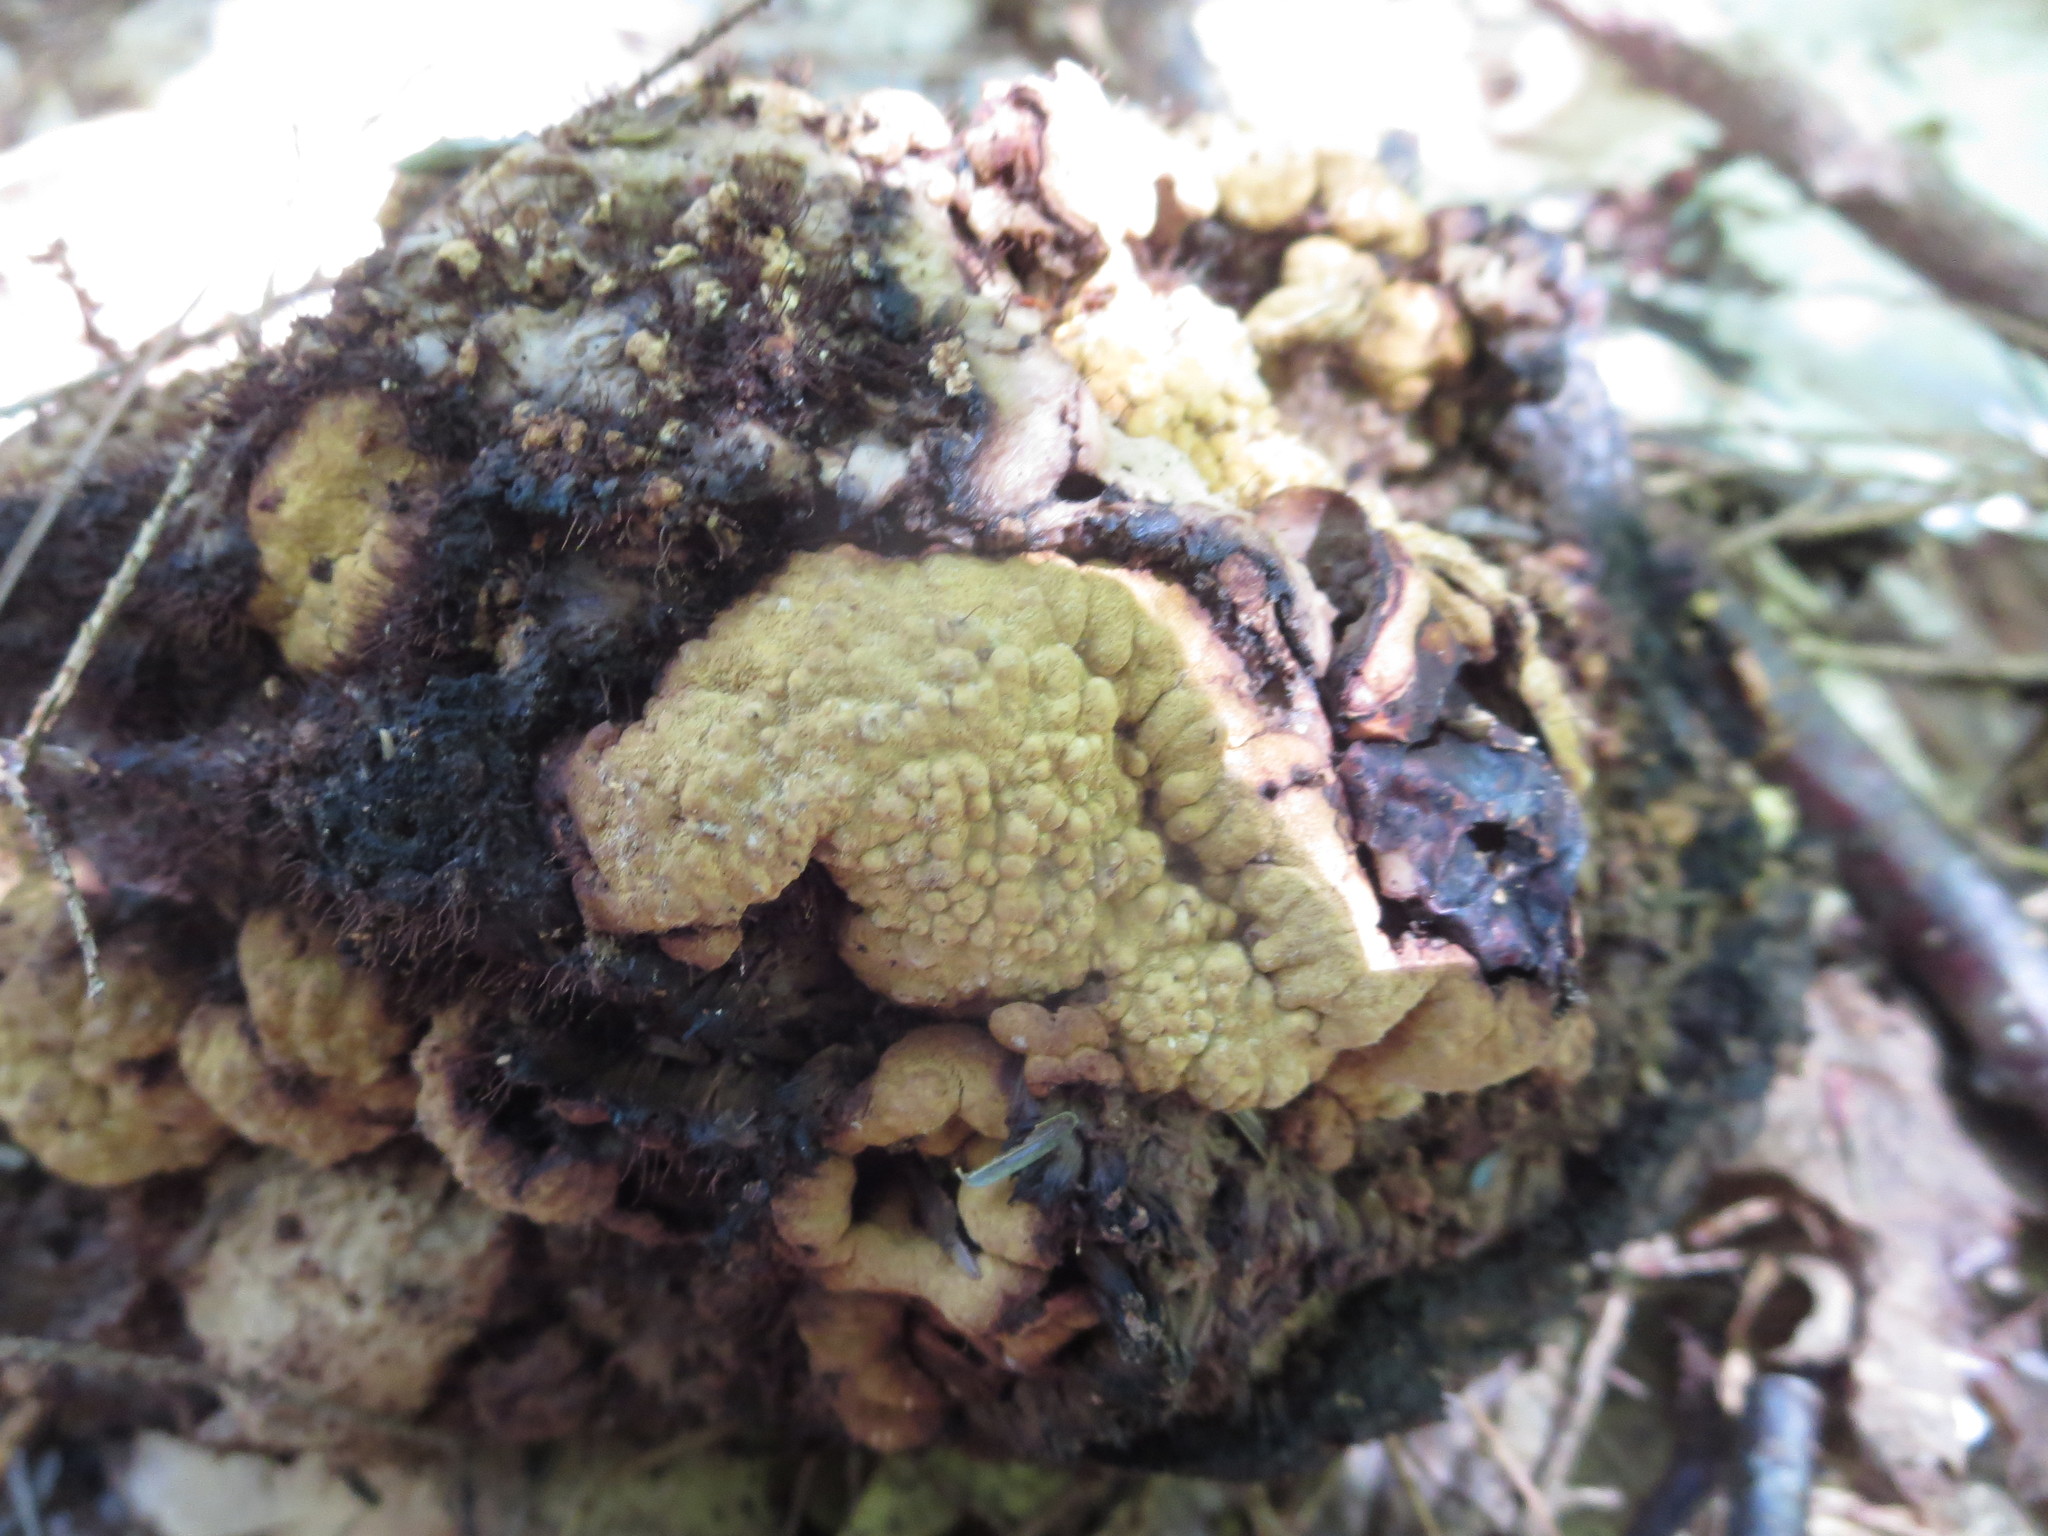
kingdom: Fungi
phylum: Ascomycota
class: Sordariomycetes
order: Hypocreales
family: Hypocreaceae
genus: Trichoderma
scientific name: Trichoderma pulvinatum
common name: Ochre cushion
